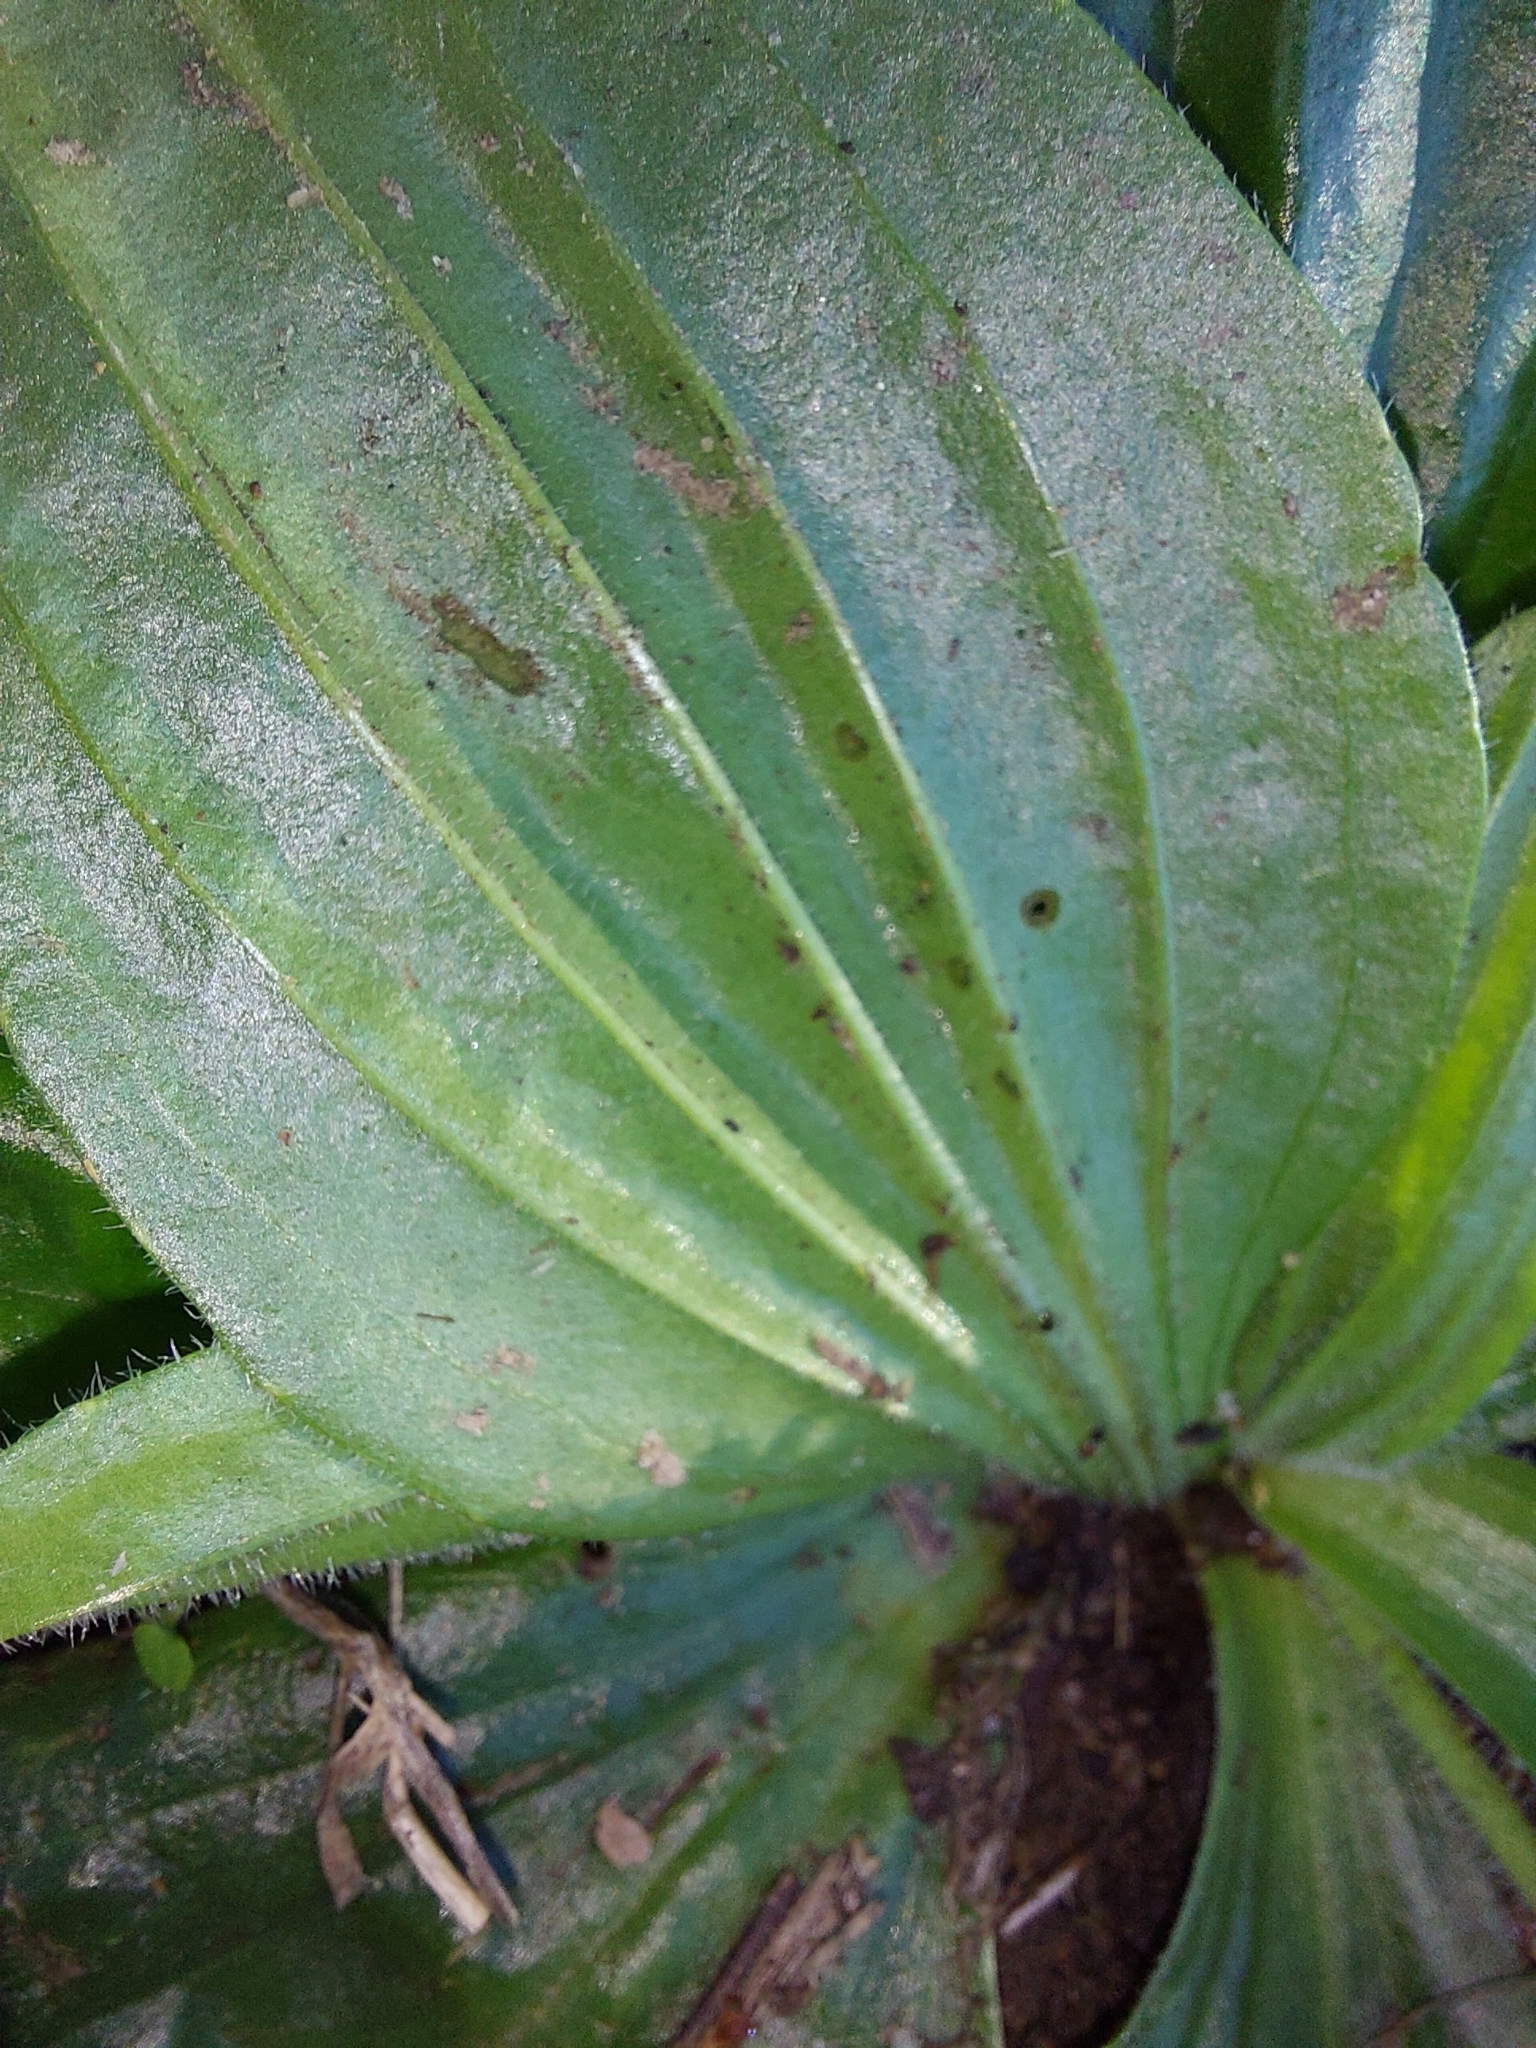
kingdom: Plantae
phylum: Tracheophyta
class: Magnoliopsida
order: Lamiales
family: Plantaginaceae
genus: Plantago
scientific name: Plantago media
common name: Hoary plantain
